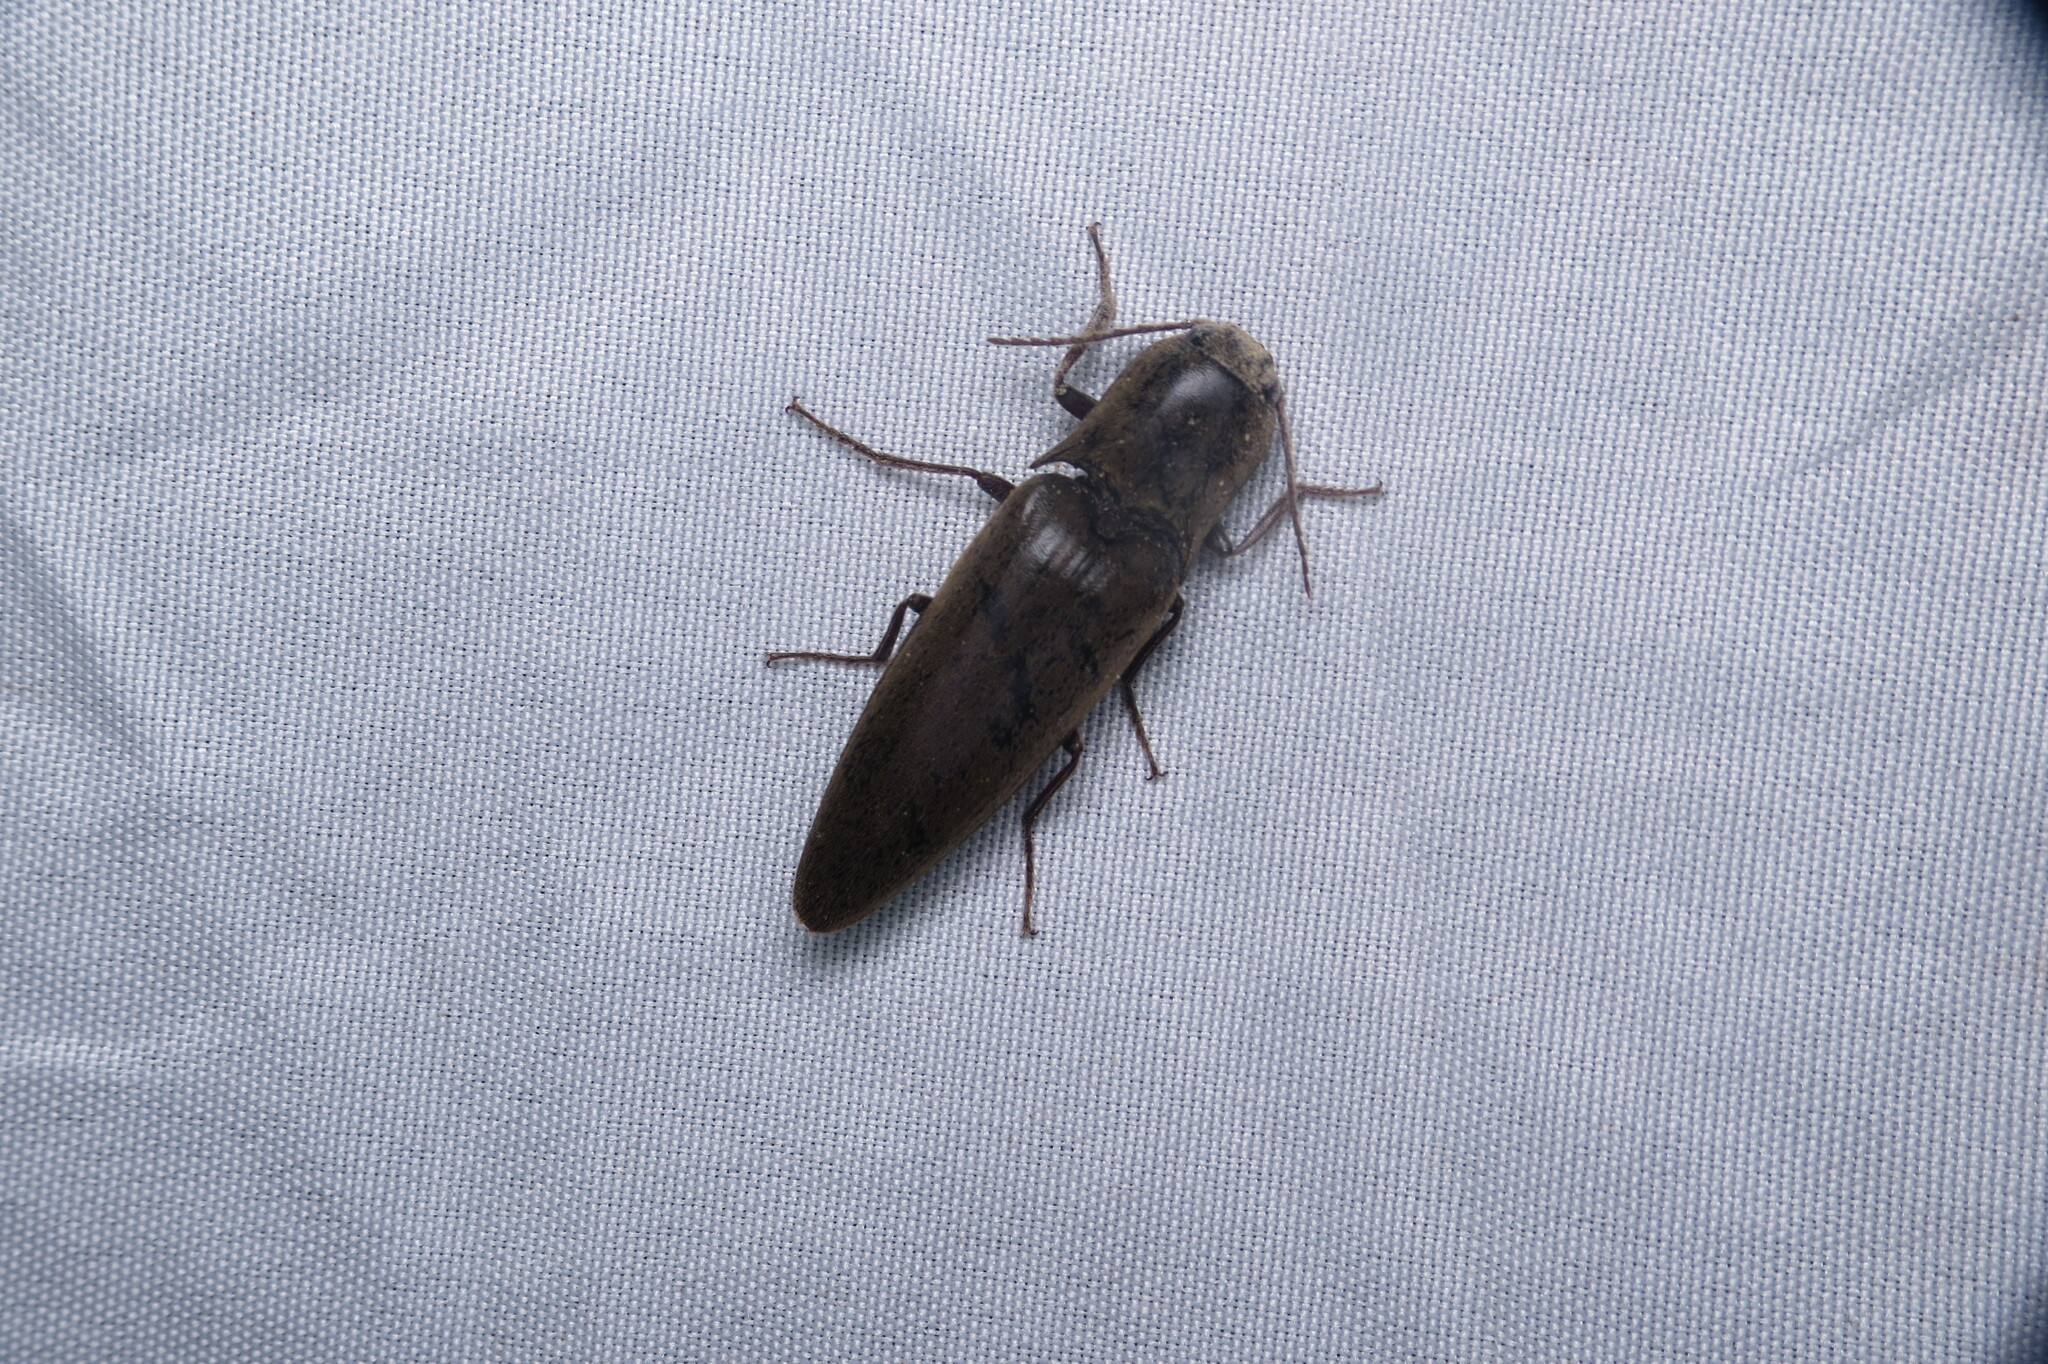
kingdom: Animalia
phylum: Arthropoda
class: Insecta
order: Coleoptera
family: Elateridae
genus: Orthostethus
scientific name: Orthostethus infuscatus
